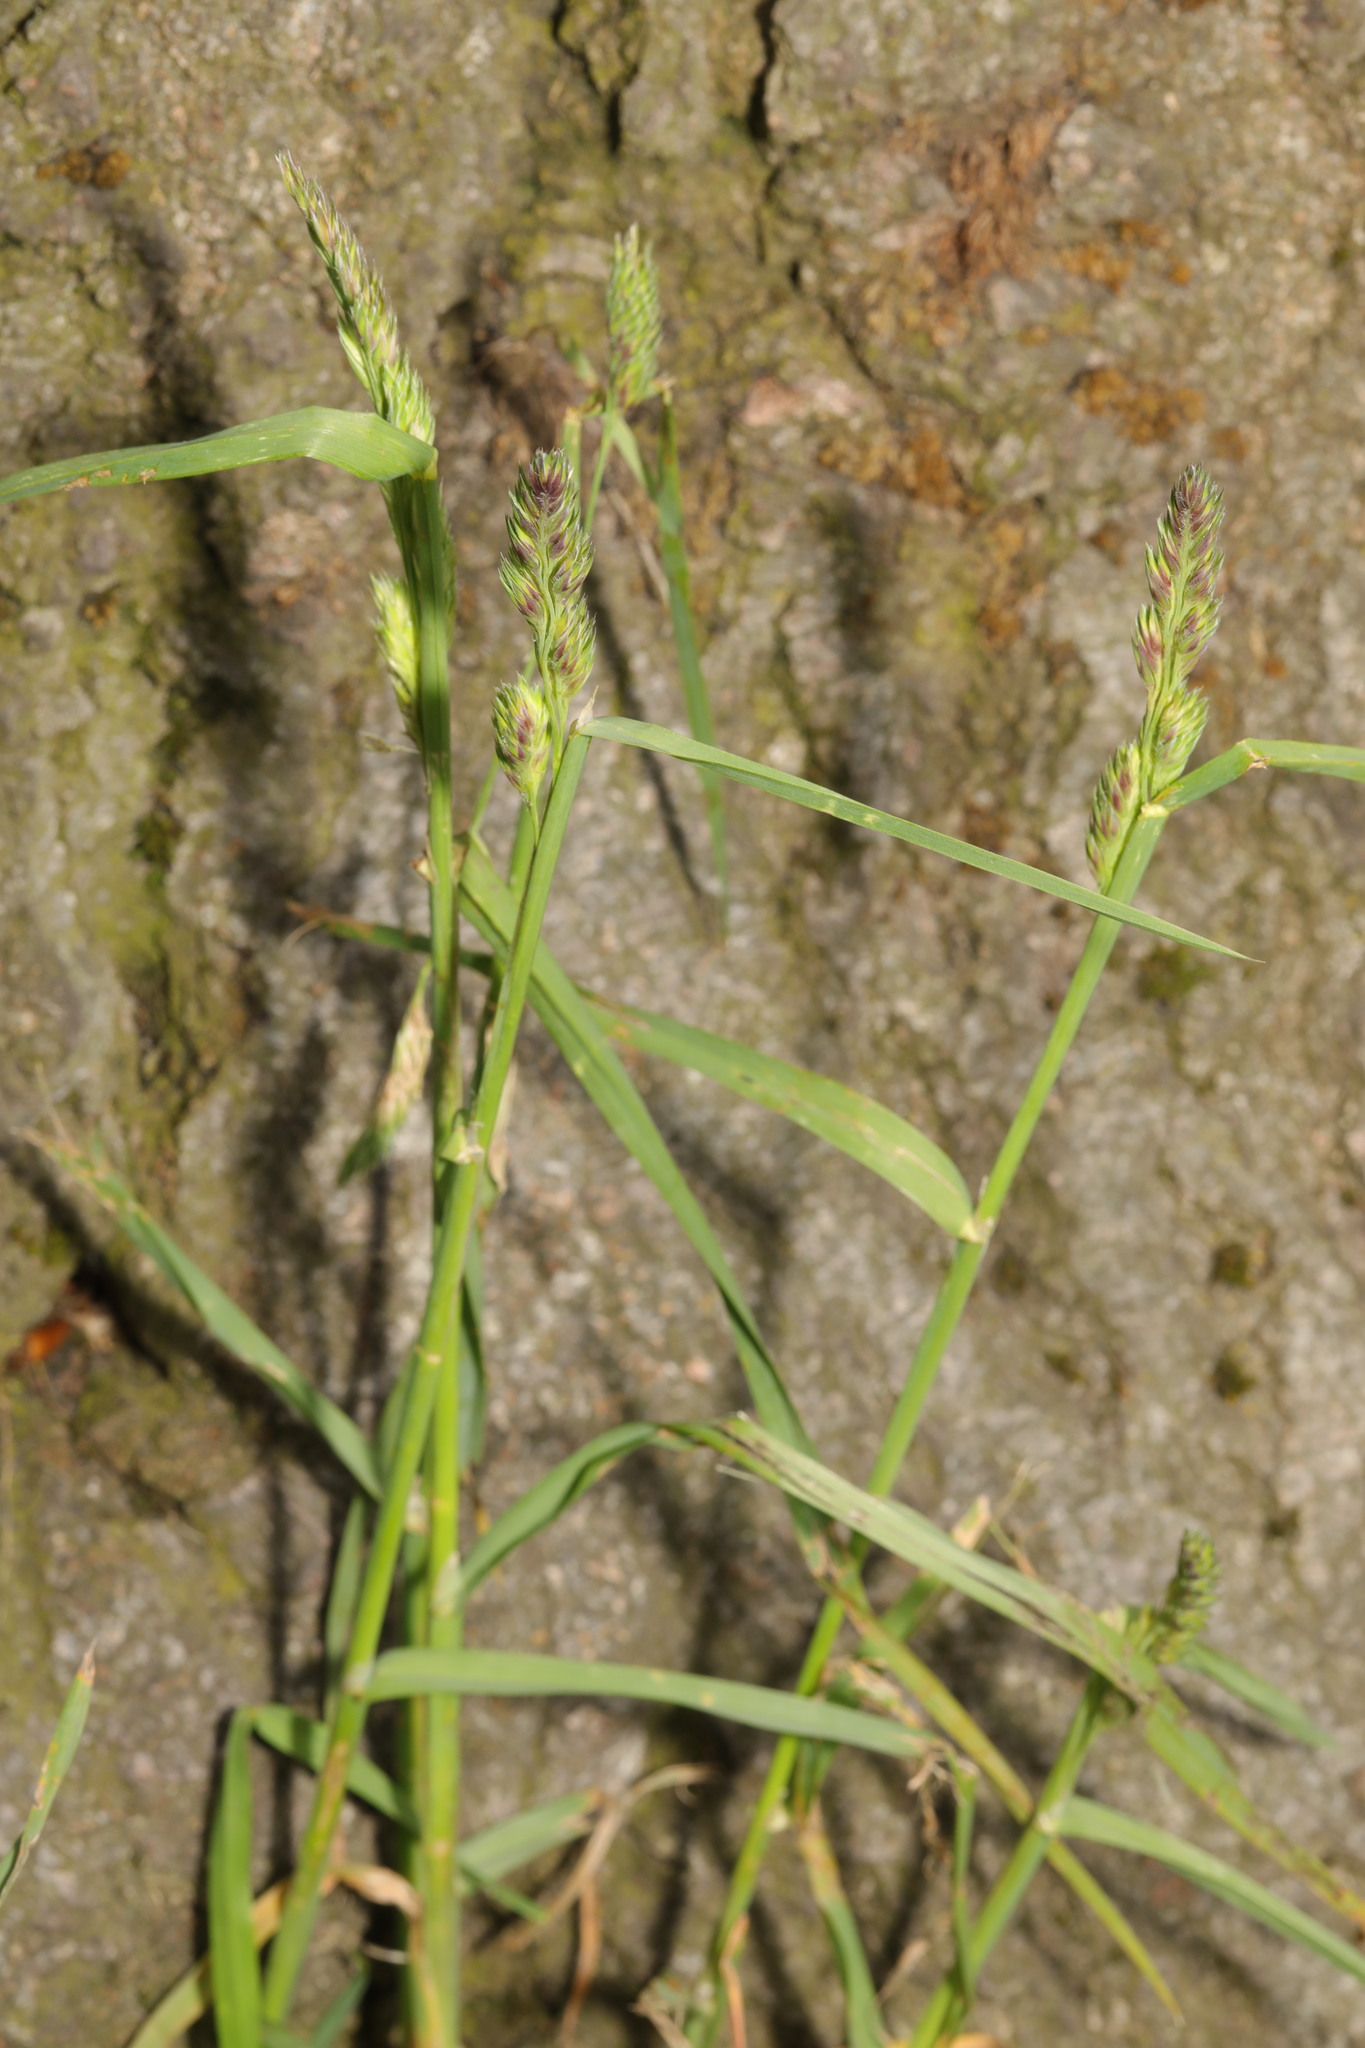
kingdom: Plantae
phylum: Tracheophyta
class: Liliopsida
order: Poales
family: Poaceae
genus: Dactylis
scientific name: Dactylis glomerata
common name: Orchardgrass
